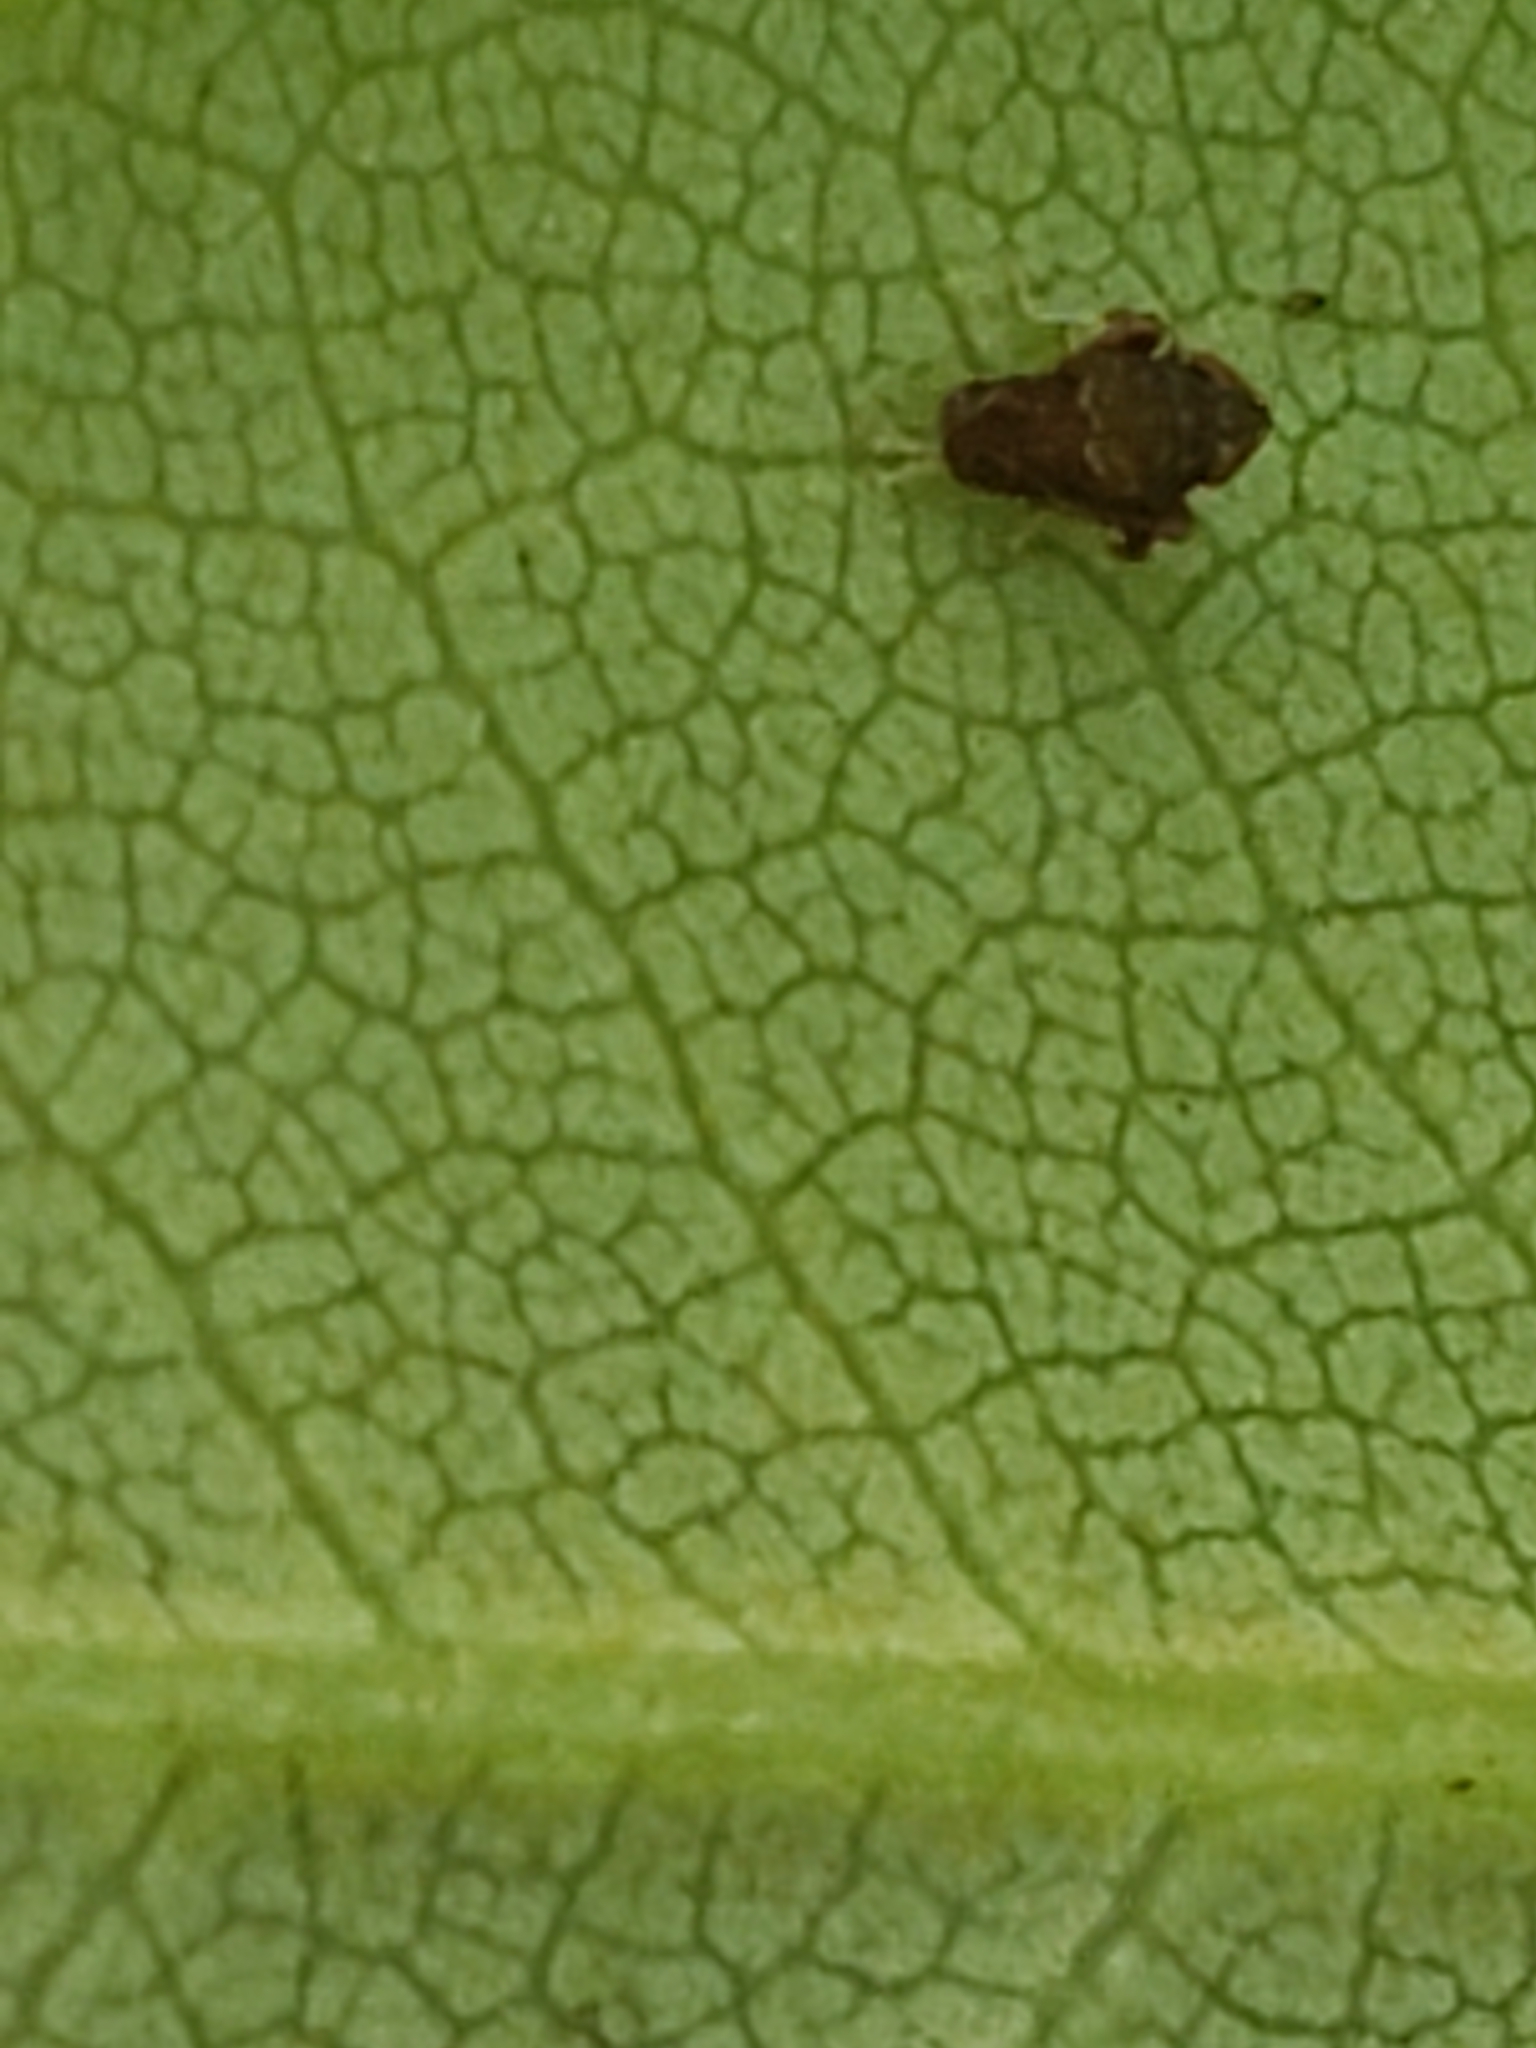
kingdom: Animalia
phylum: Arthropoda
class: Insecta
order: Hemiptera
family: Cicadellidae
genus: Orientus
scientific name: Orientus ishidae
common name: Japanese leafhopper
